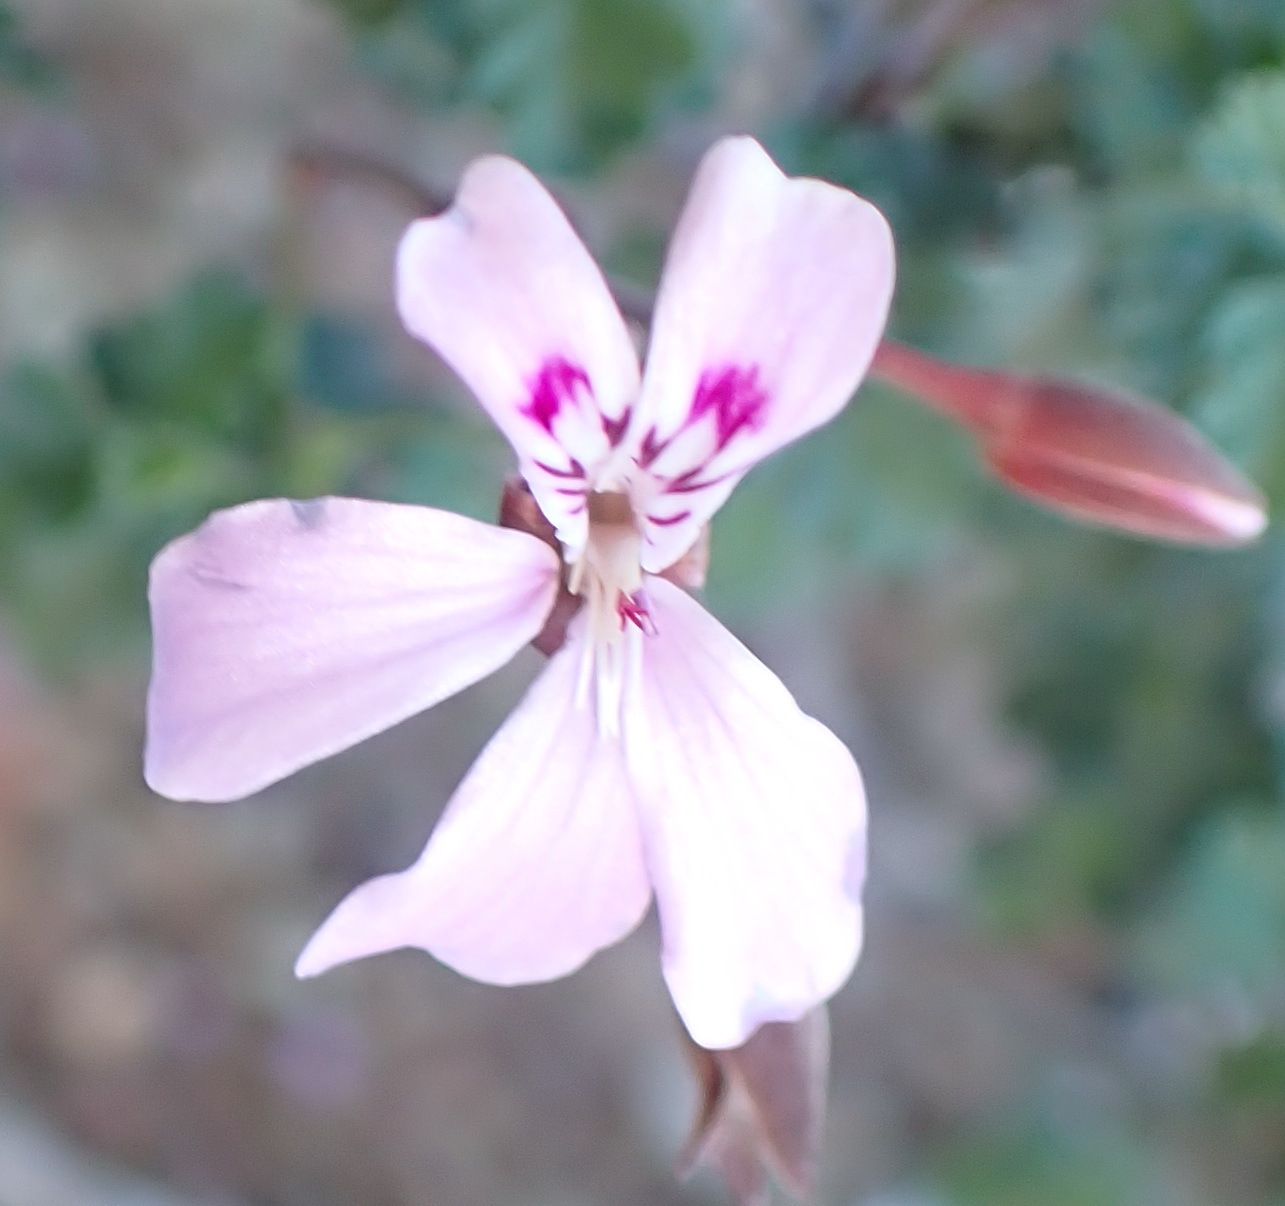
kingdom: Plantae
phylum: Tracheophyta
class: Magnoliopsida
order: Geraniales
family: Geraniaceae
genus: Pelargonium
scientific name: Pelargonium exstipulatum
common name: Soft-leaf trifid pelargonium
